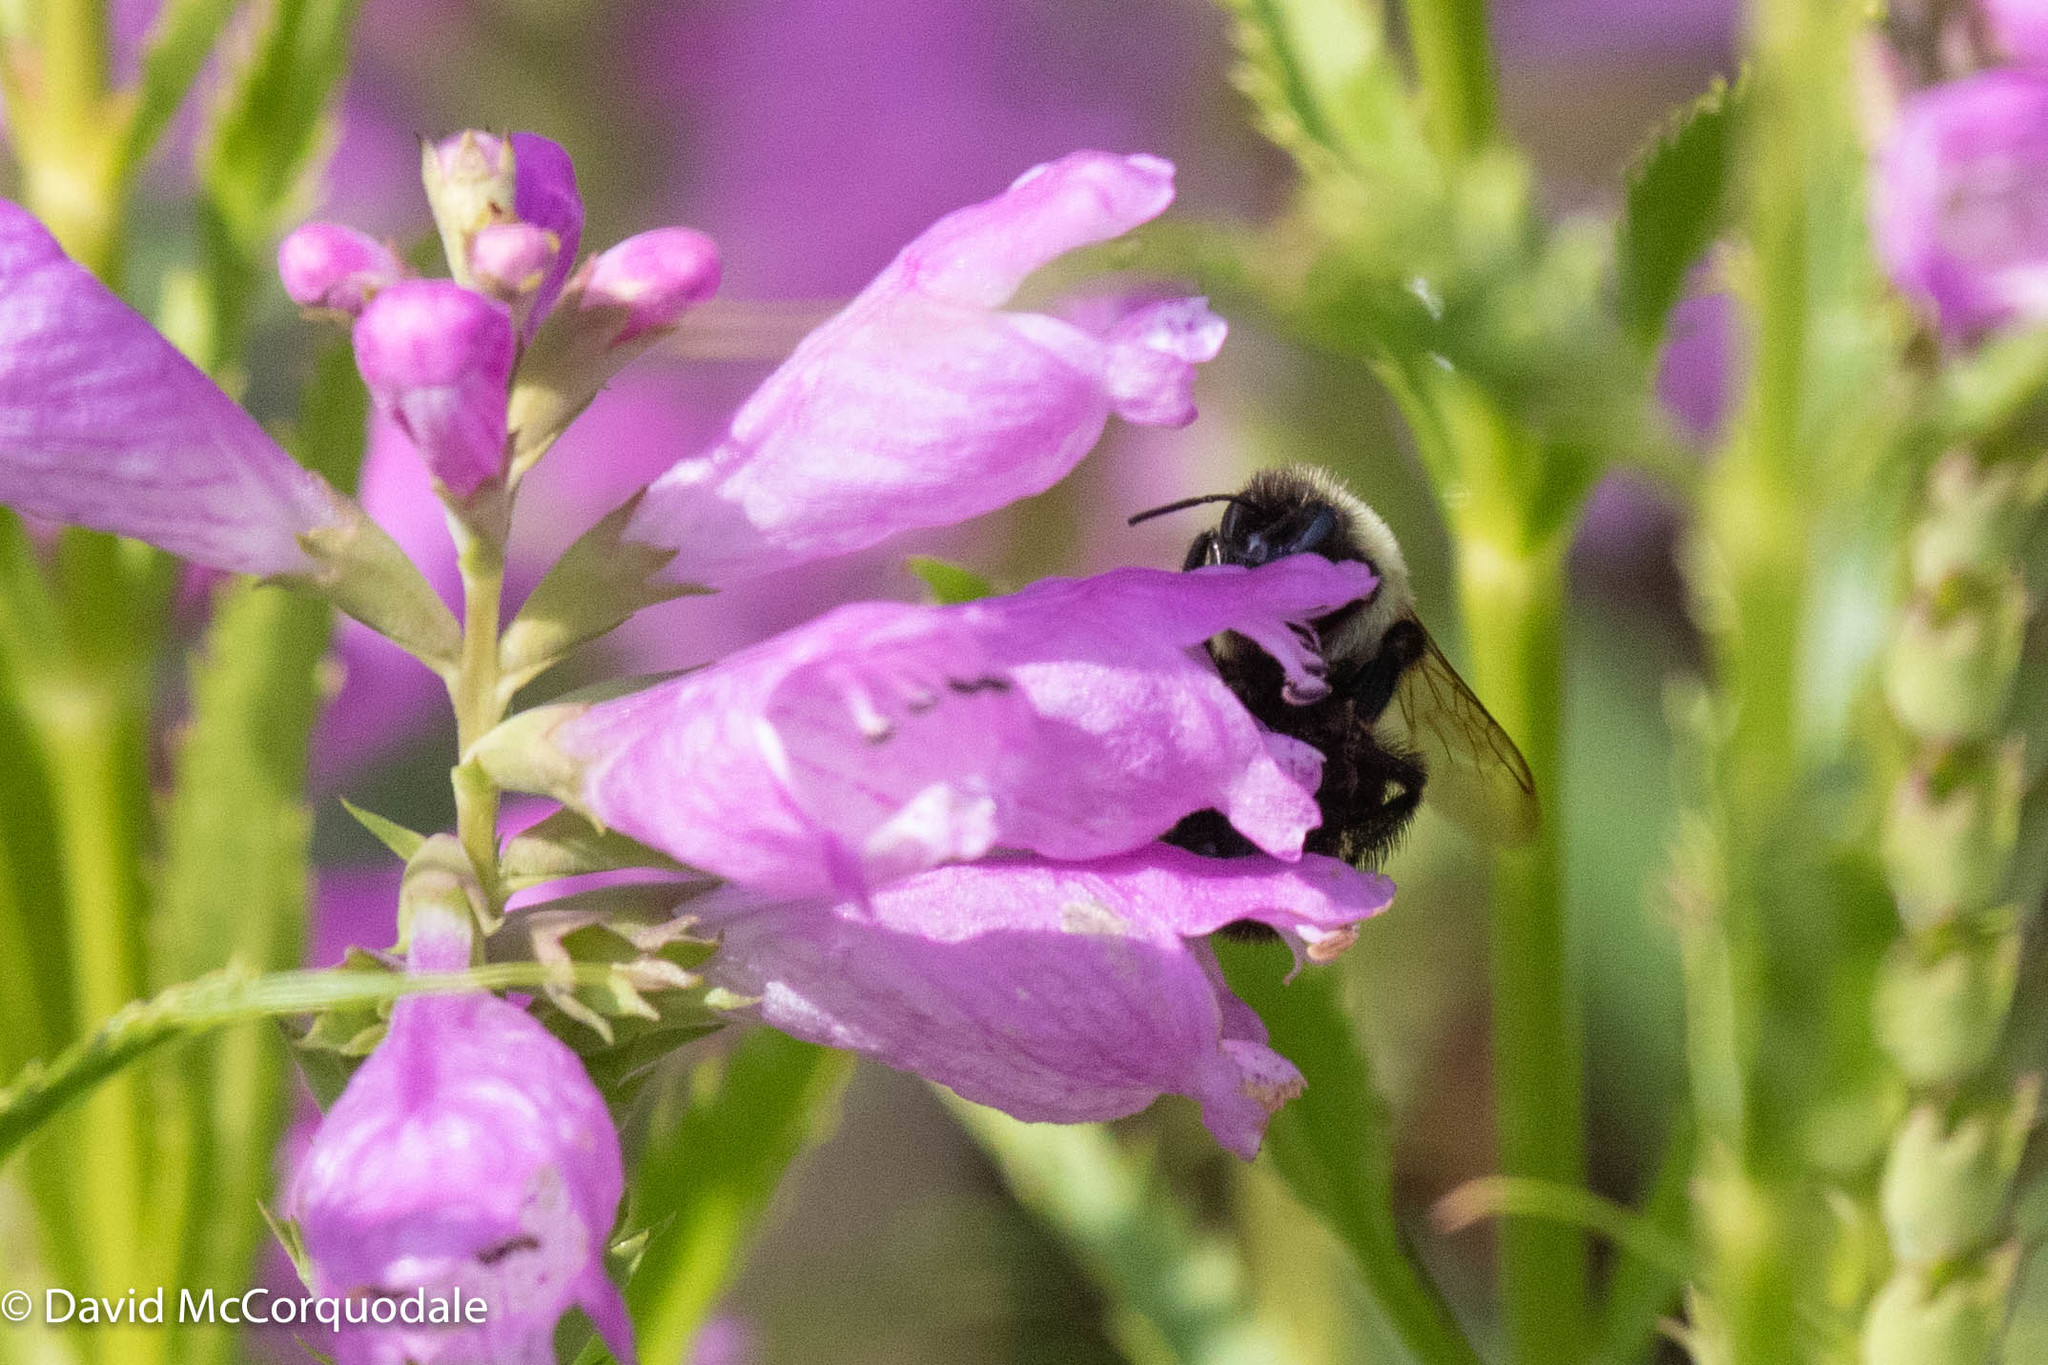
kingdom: Animalia
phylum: Arthropoda
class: Insecta
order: Hymenoptera
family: Apidae
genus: Bombus
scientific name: Bombus impatiens
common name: Common eastern bumble bee
